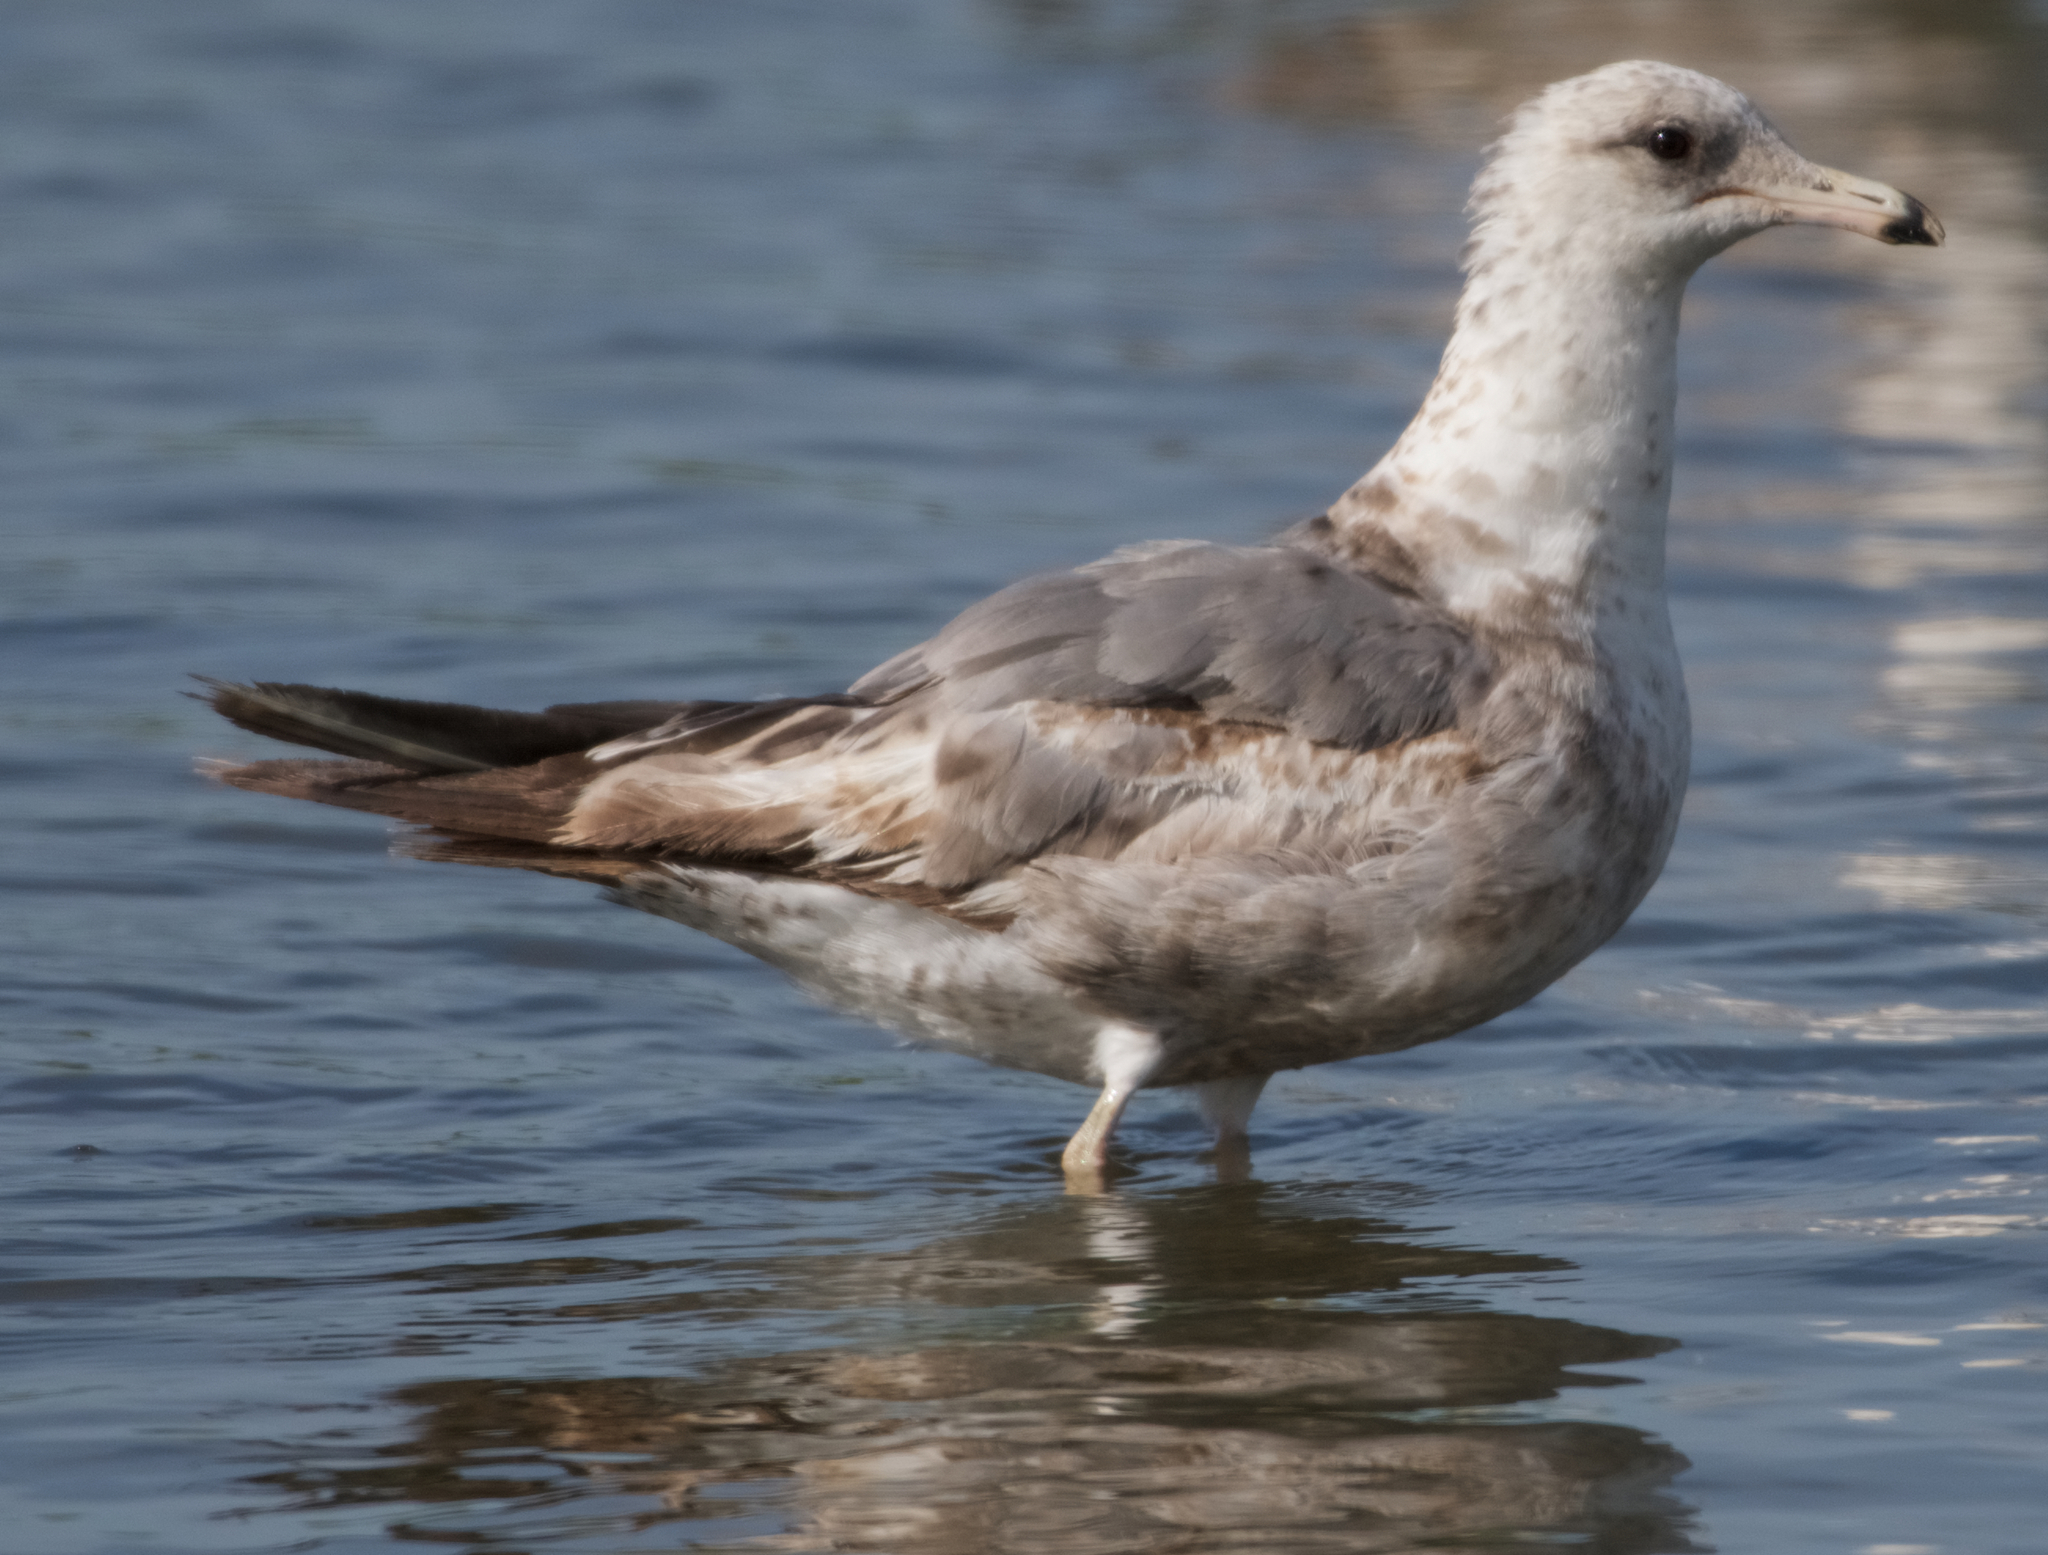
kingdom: Animalia
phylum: Chordata
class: Aves
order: Charadriiformes
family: Laridae
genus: Larus
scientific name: Larus californicus
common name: California gull
